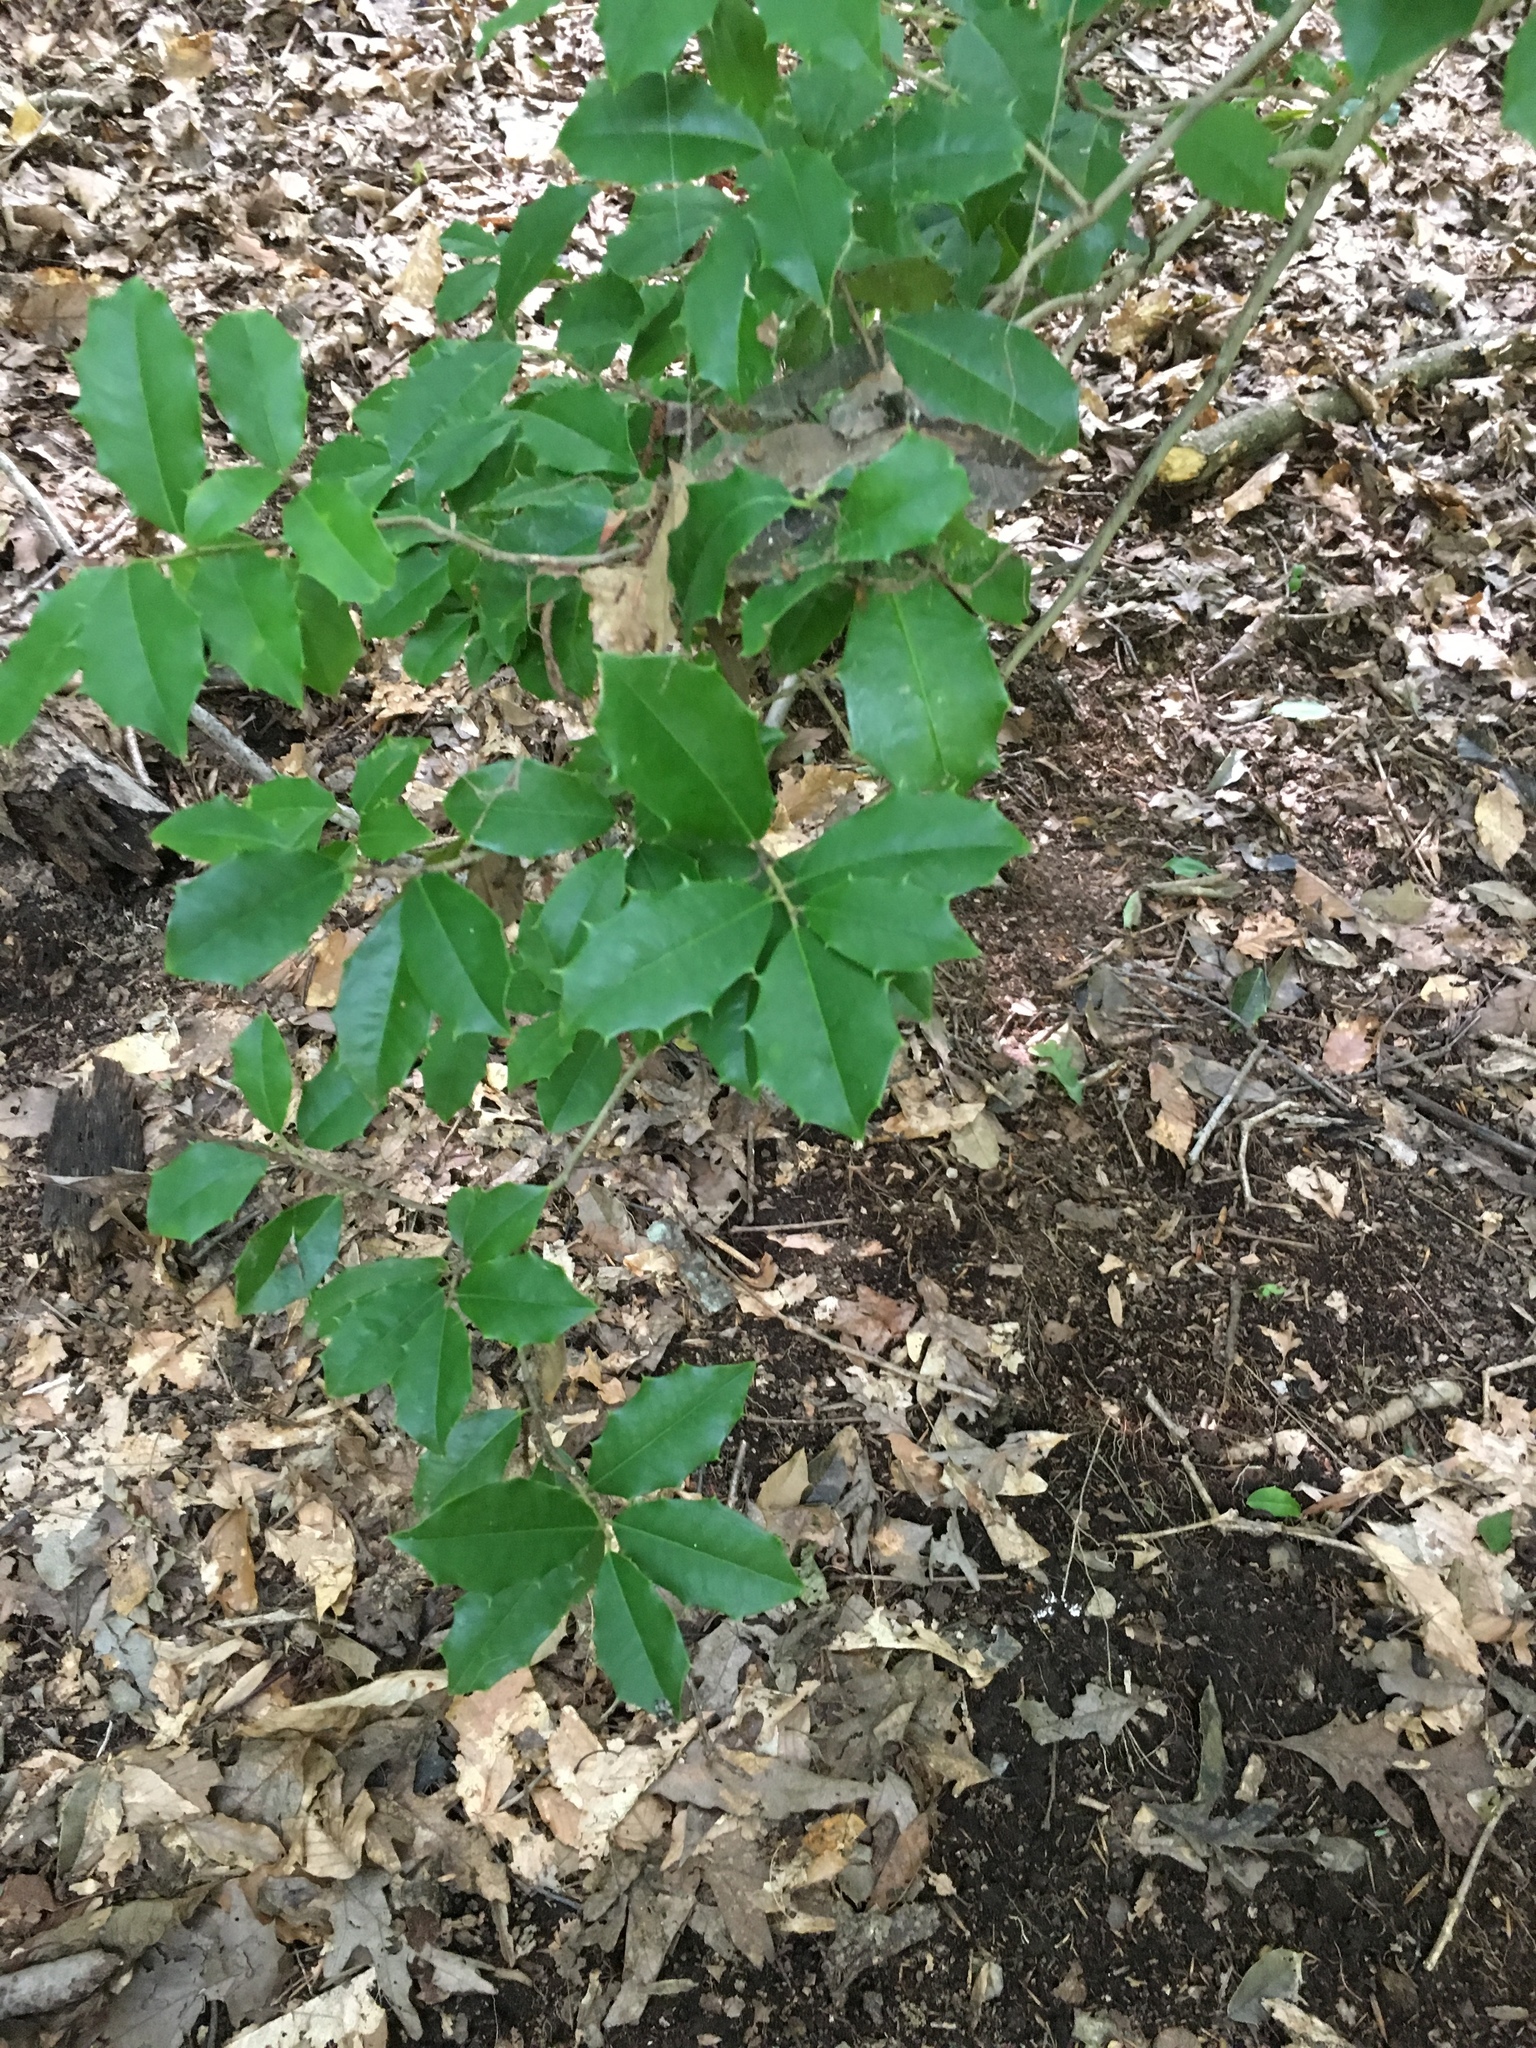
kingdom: Plantae
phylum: Tracheophyta
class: Magnoliopsida
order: Aquifoliales
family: Aquifoliaceae
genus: Ilex
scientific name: Ilex opaca
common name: American holly
